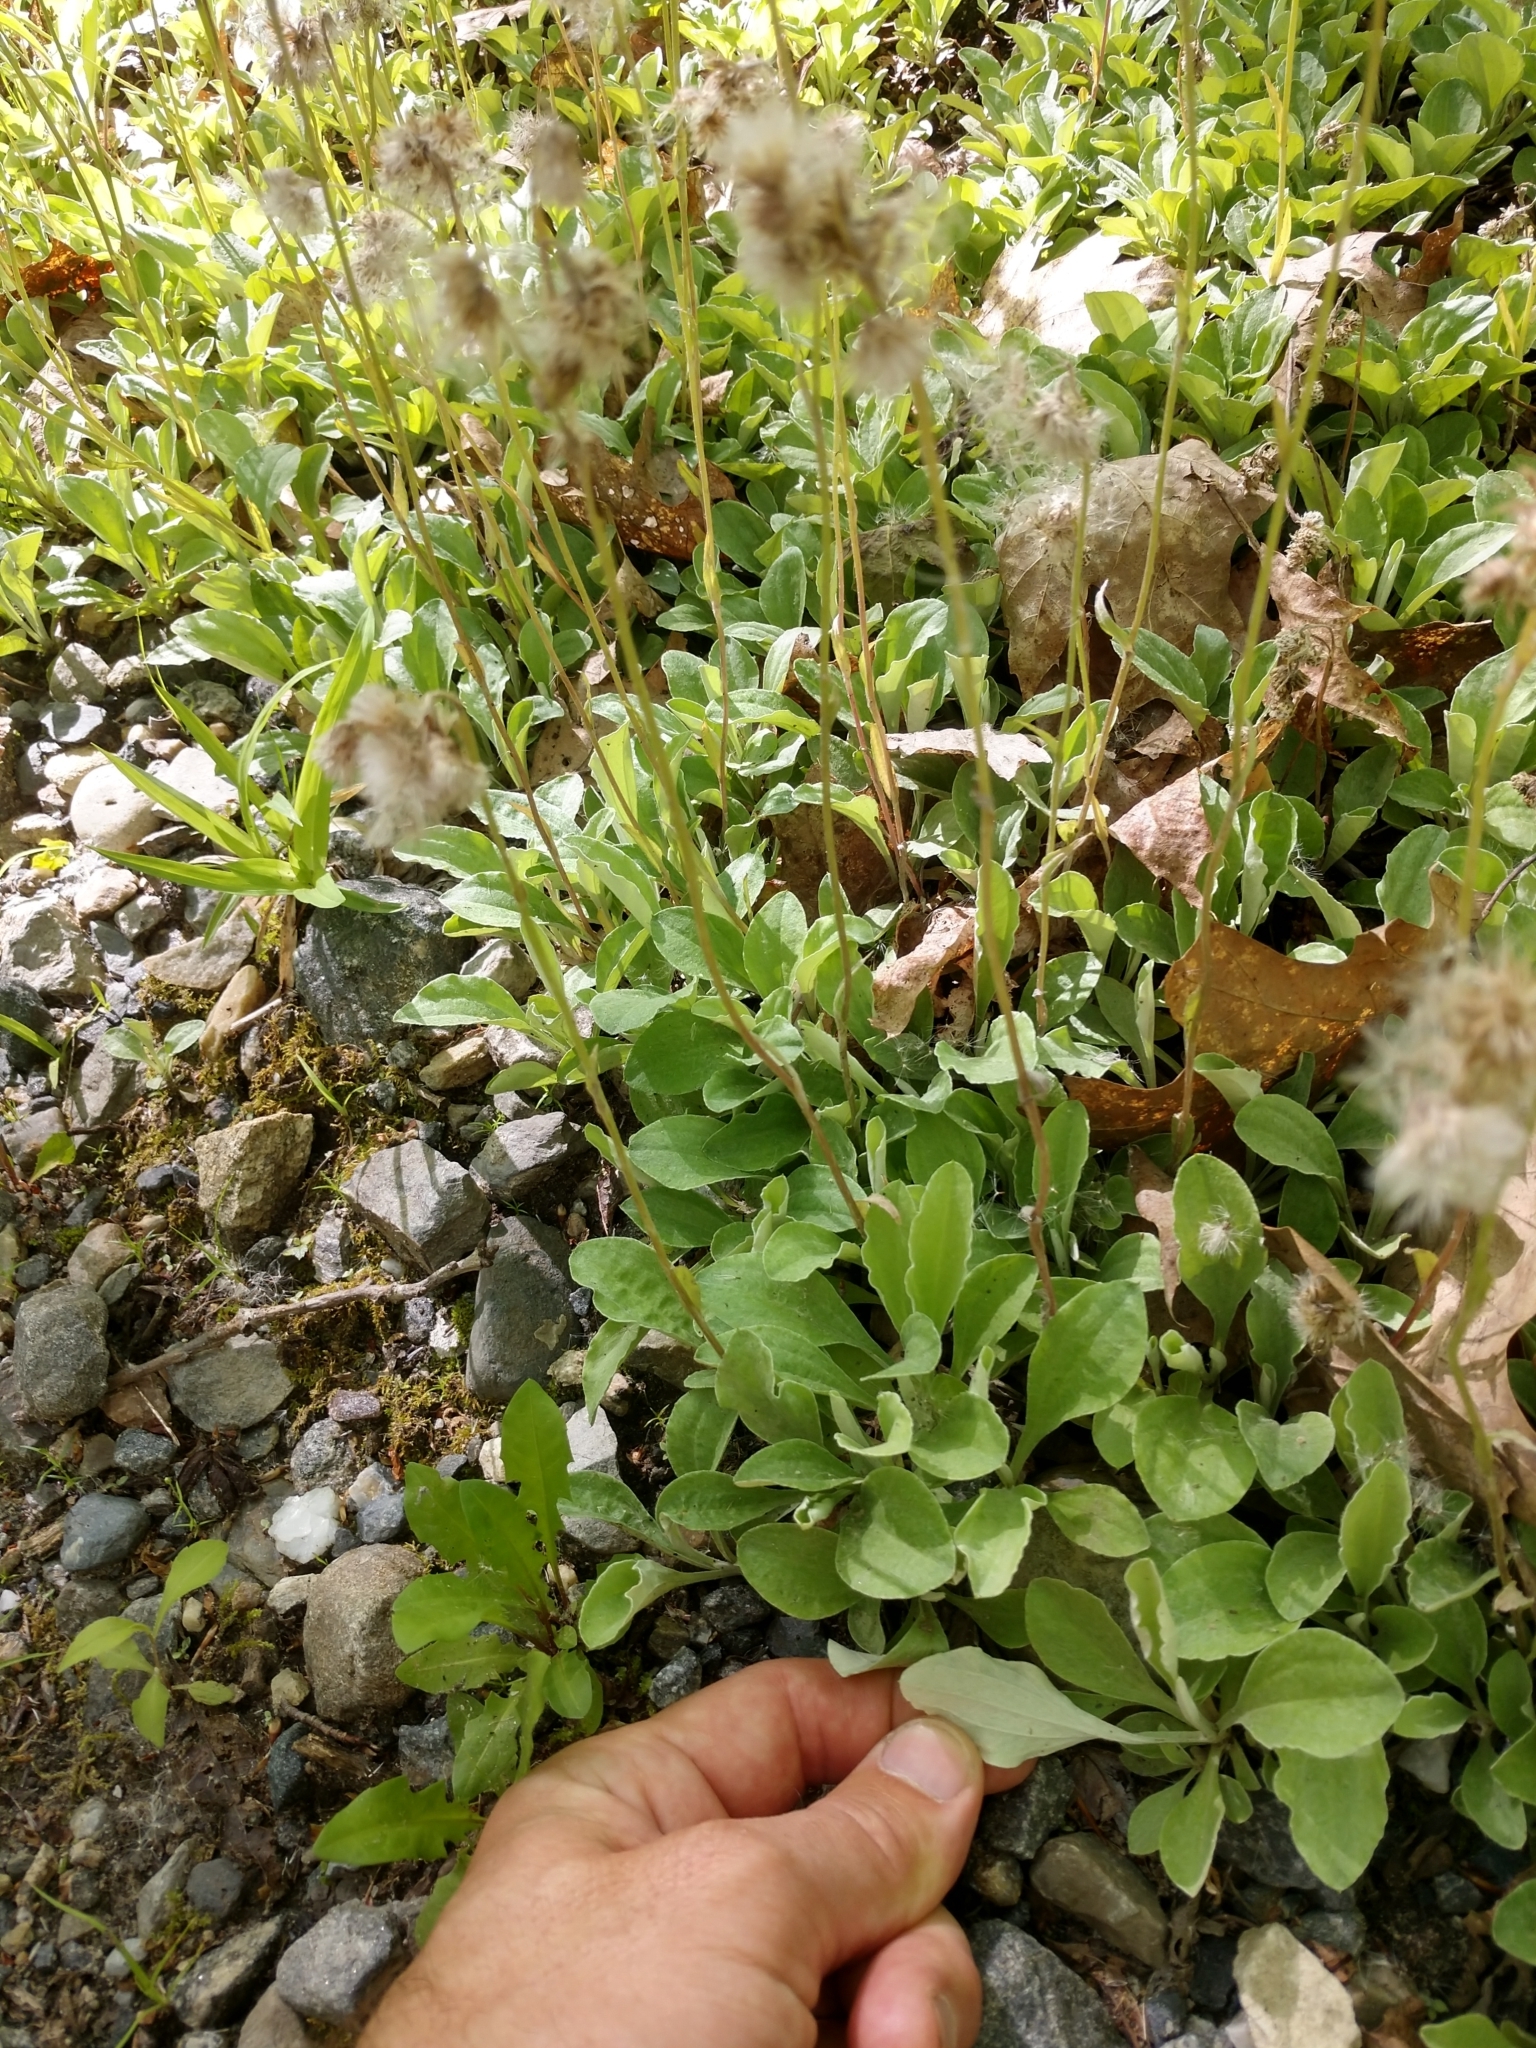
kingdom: Plantae
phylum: Tracheophyta
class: Magnoliopsida
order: Asterales
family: Asteraceae
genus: Antennaria
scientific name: Antennaria plantaginifolia
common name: Plantain-leaved pussytoes
